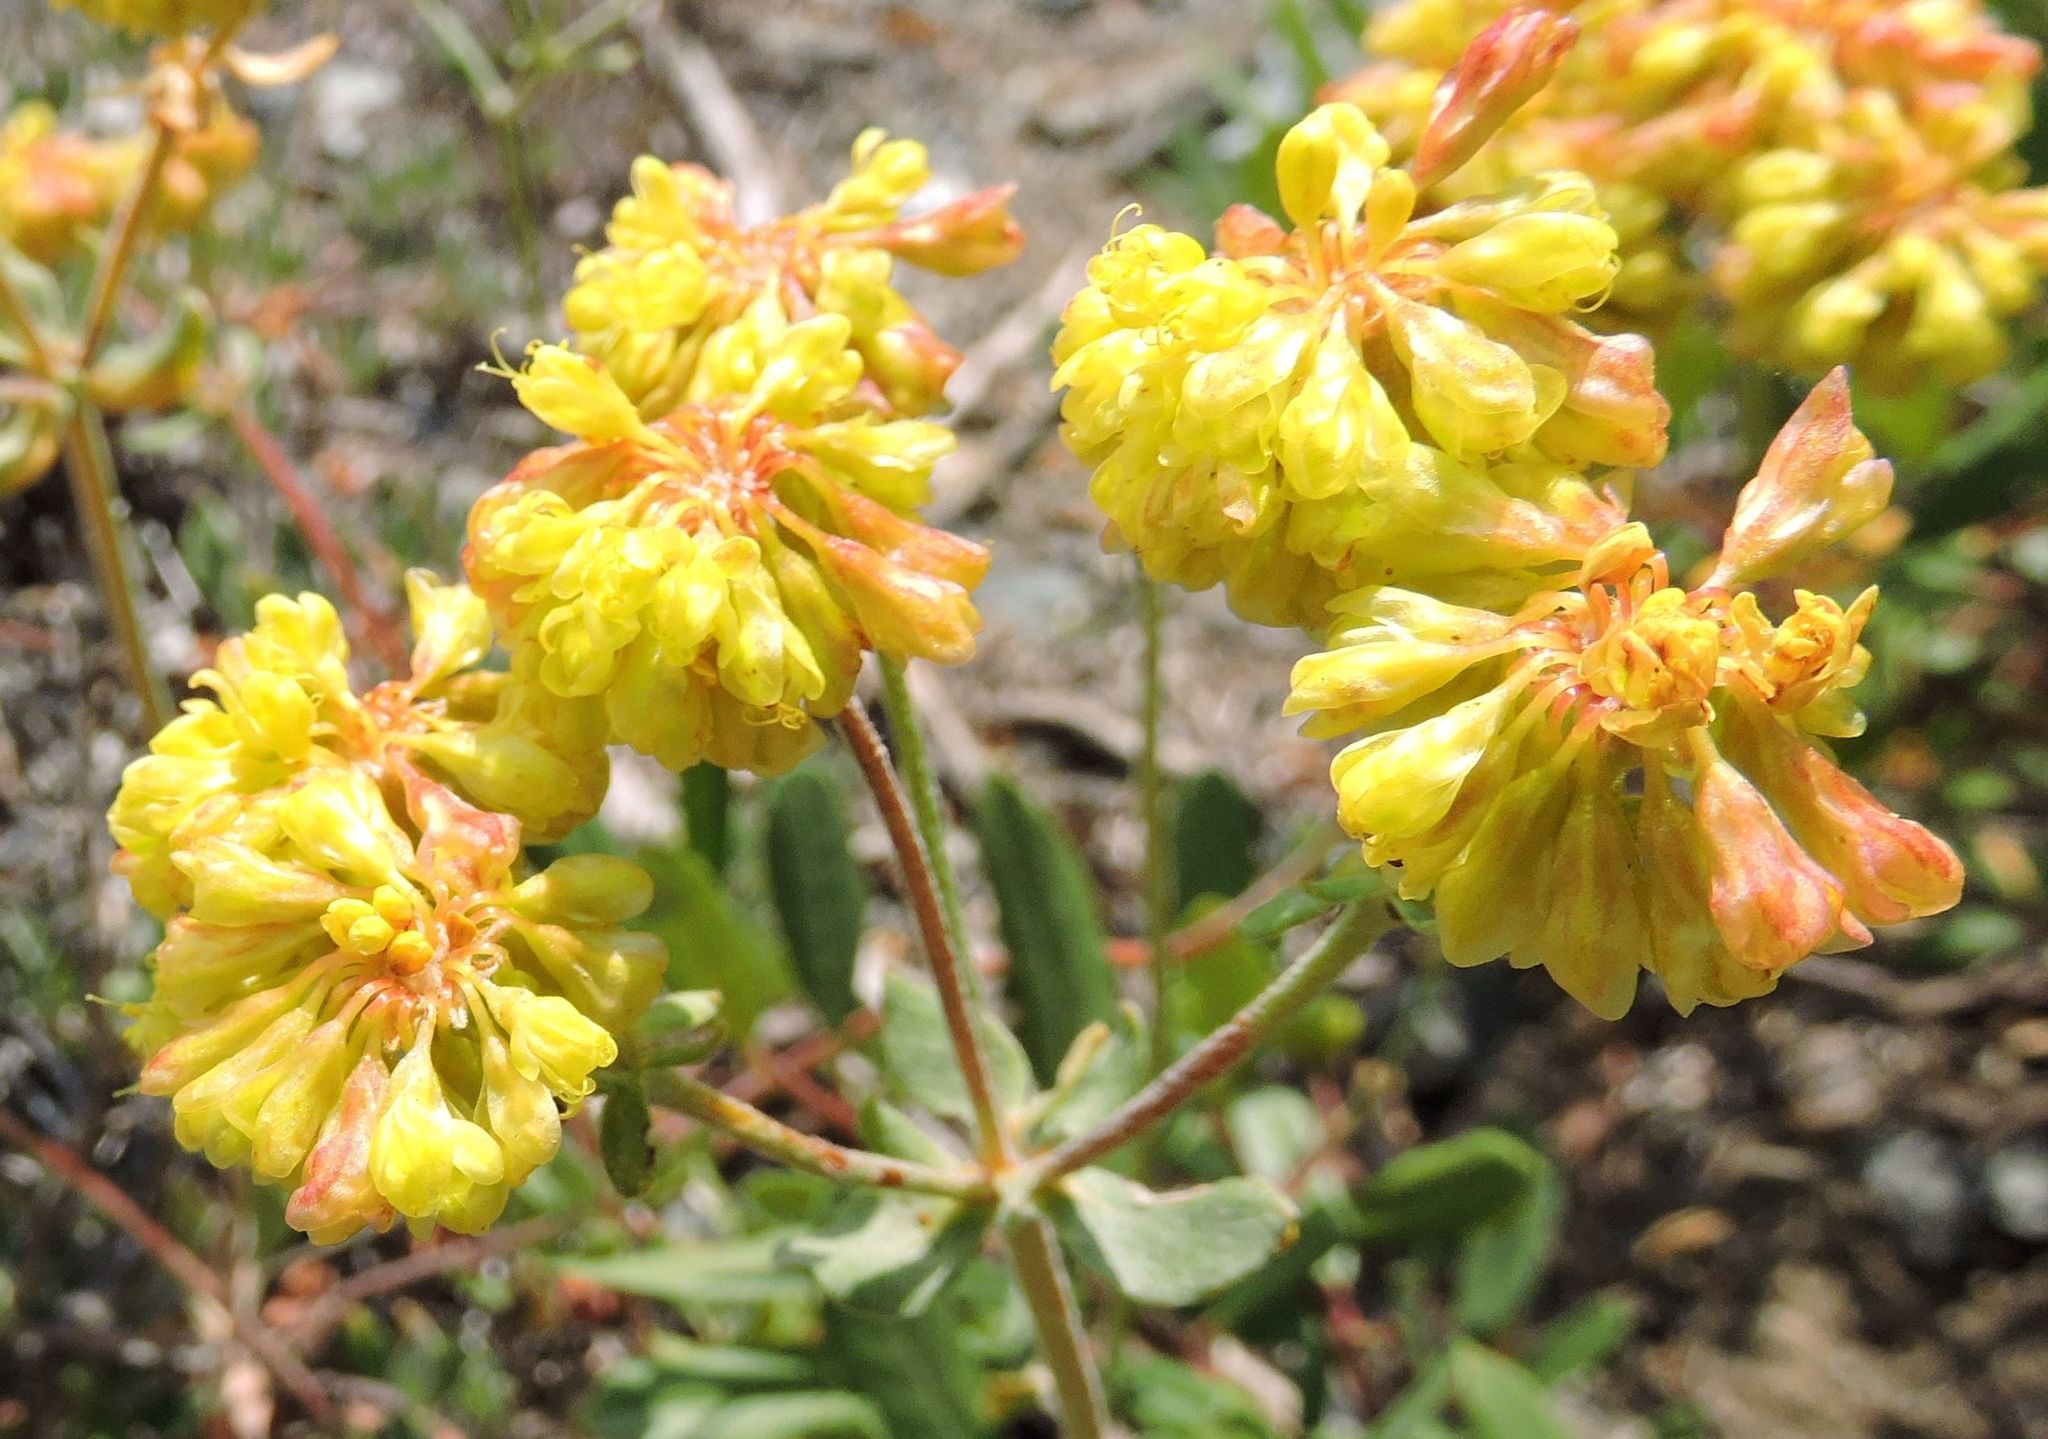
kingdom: Plantae
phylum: Tracheophyta
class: Magnoliopsida
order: Caryophyllales
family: Polygonaceae
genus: Eriogonum
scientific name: Eriogonum umbellatum
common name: Sulfur-buckwheat
